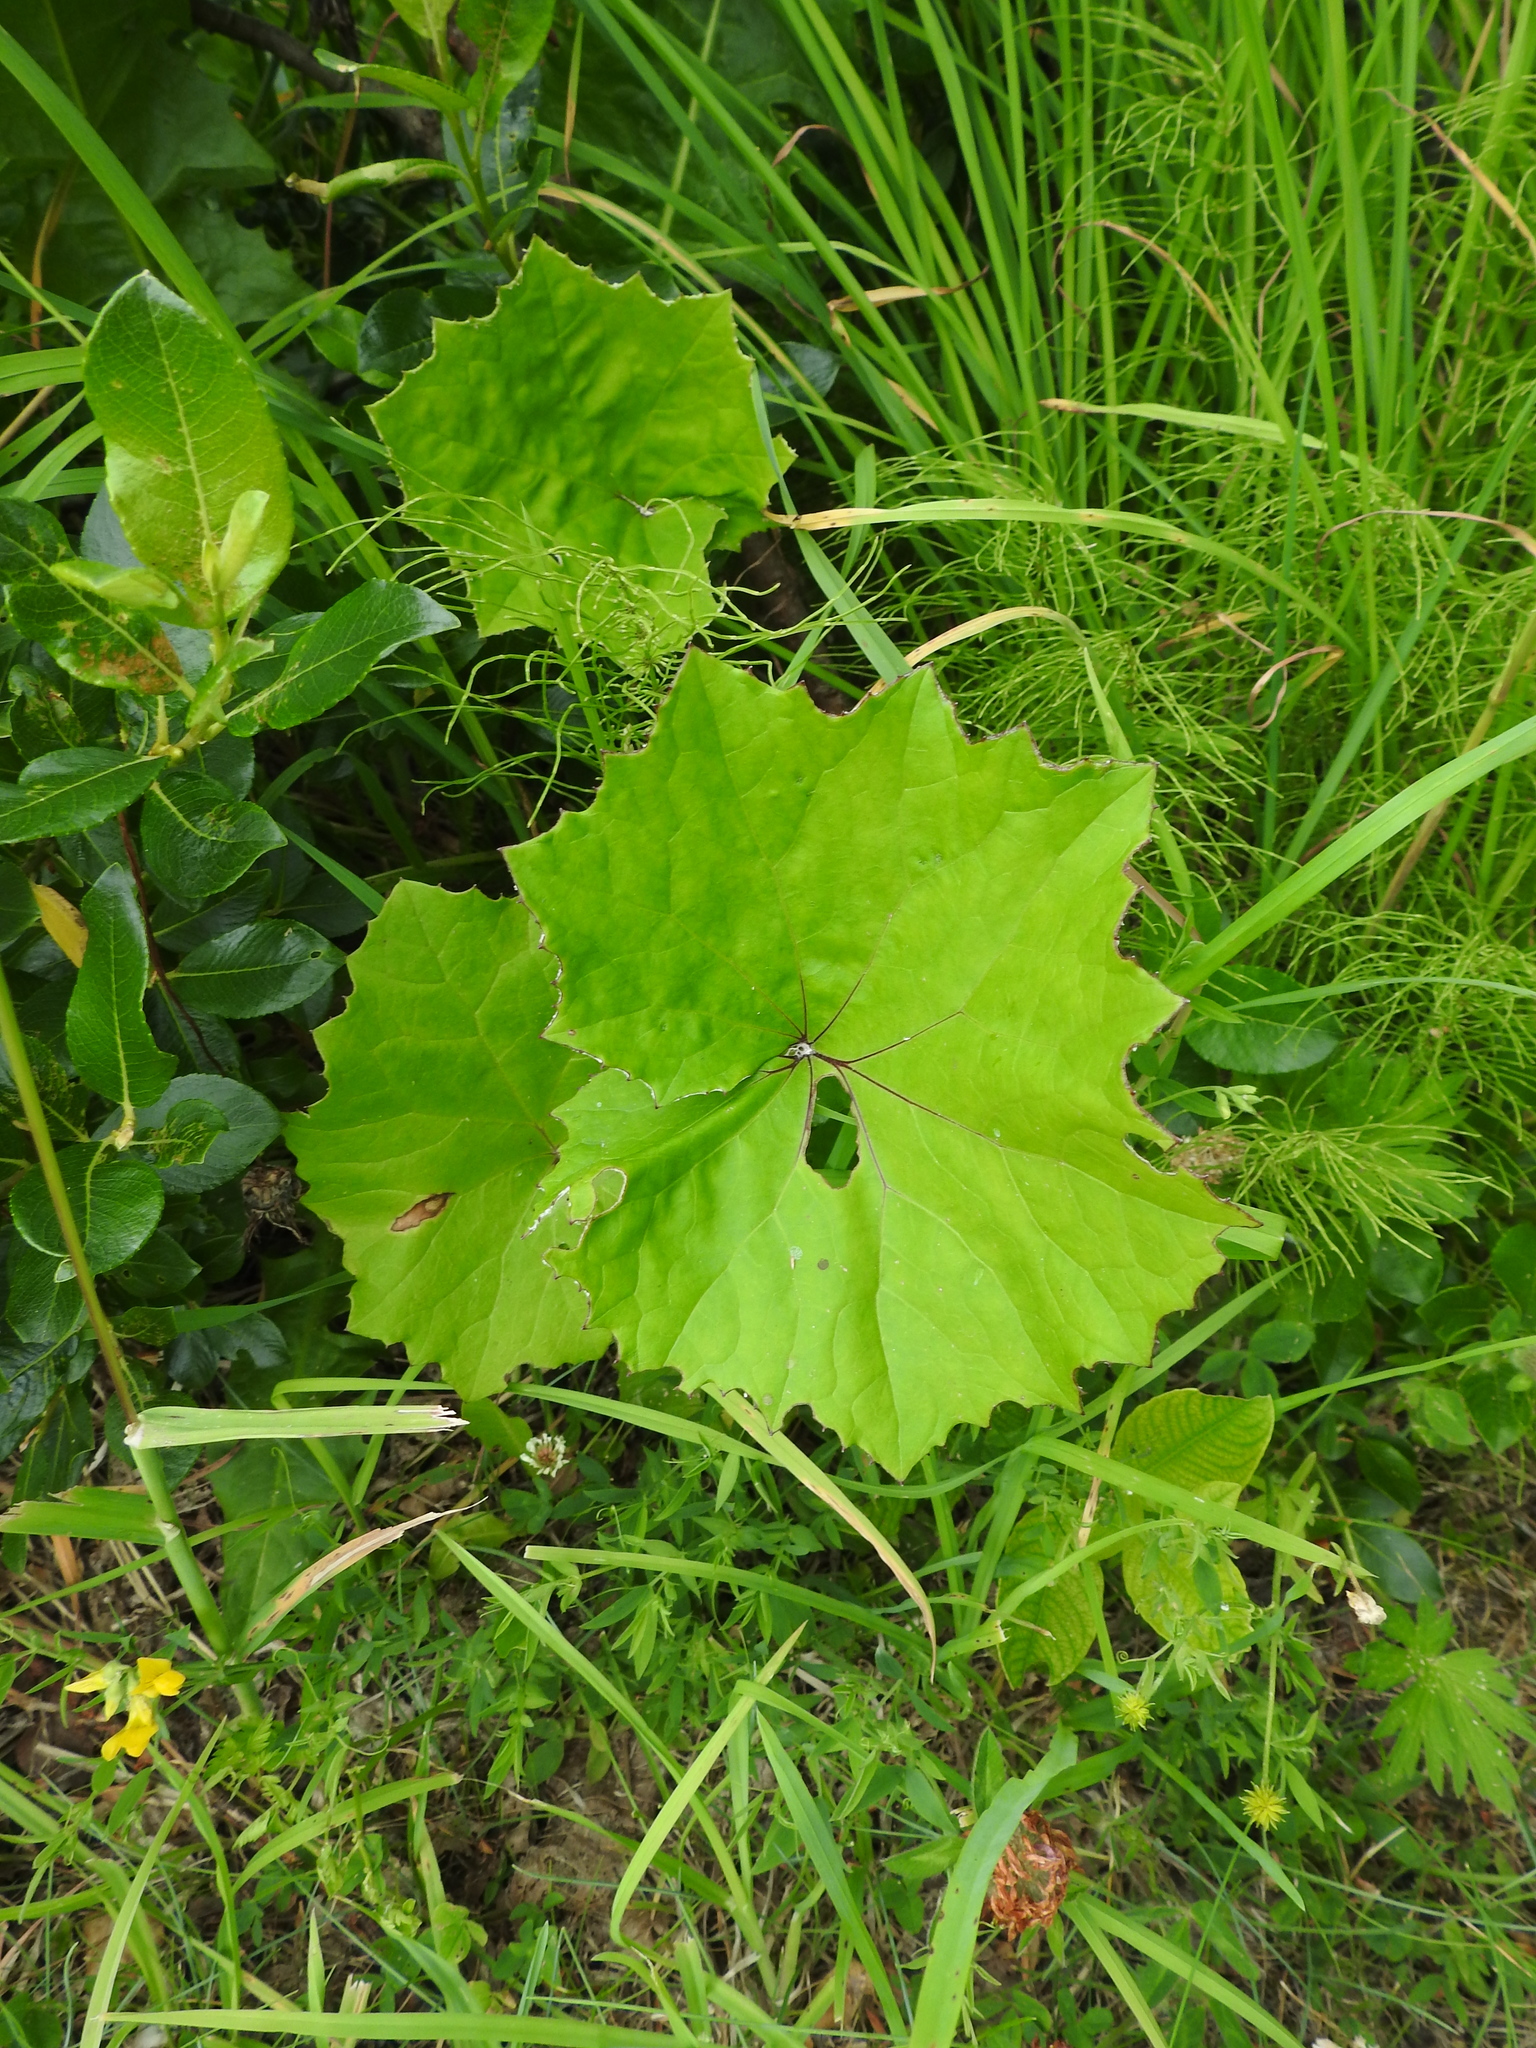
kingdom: Plantae
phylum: Tracheophyta
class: Magnoliopsida
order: Asterales
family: Asteraceae
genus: Tussilago
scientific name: Tussilago farfara
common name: Coltsfoot
